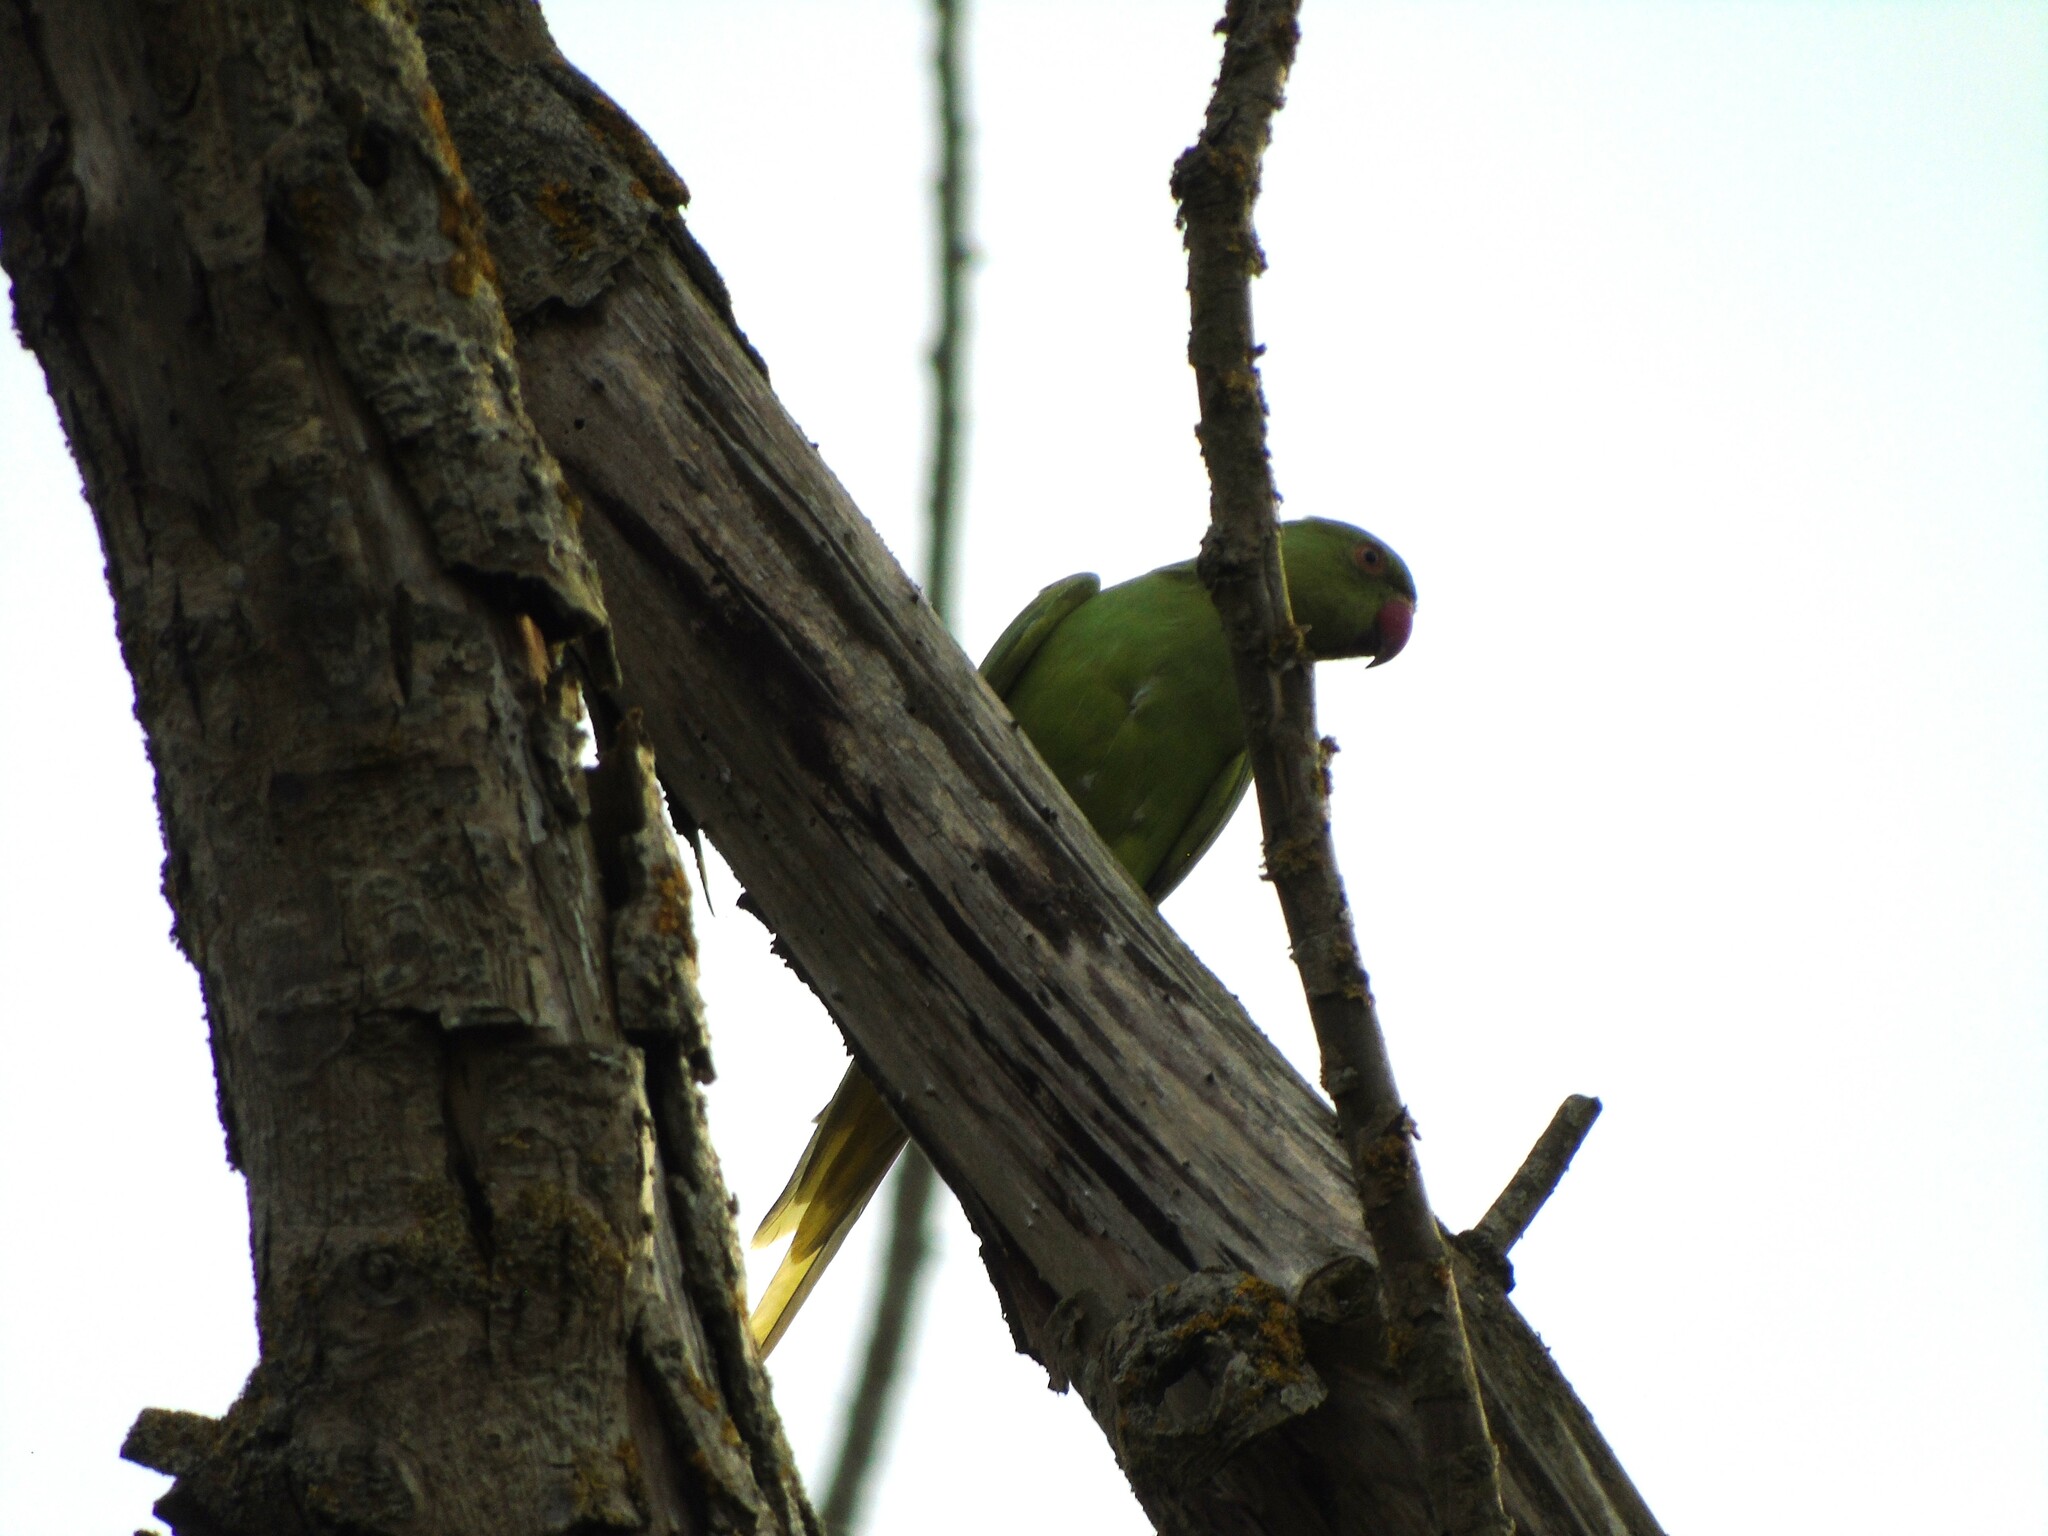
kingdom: Animalia
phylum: Chordata
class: Aves
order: Psittaciformes
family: Psittacidae
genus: Psittacula
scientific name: Psittacula krameri
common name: Rose-ringed parakeet
